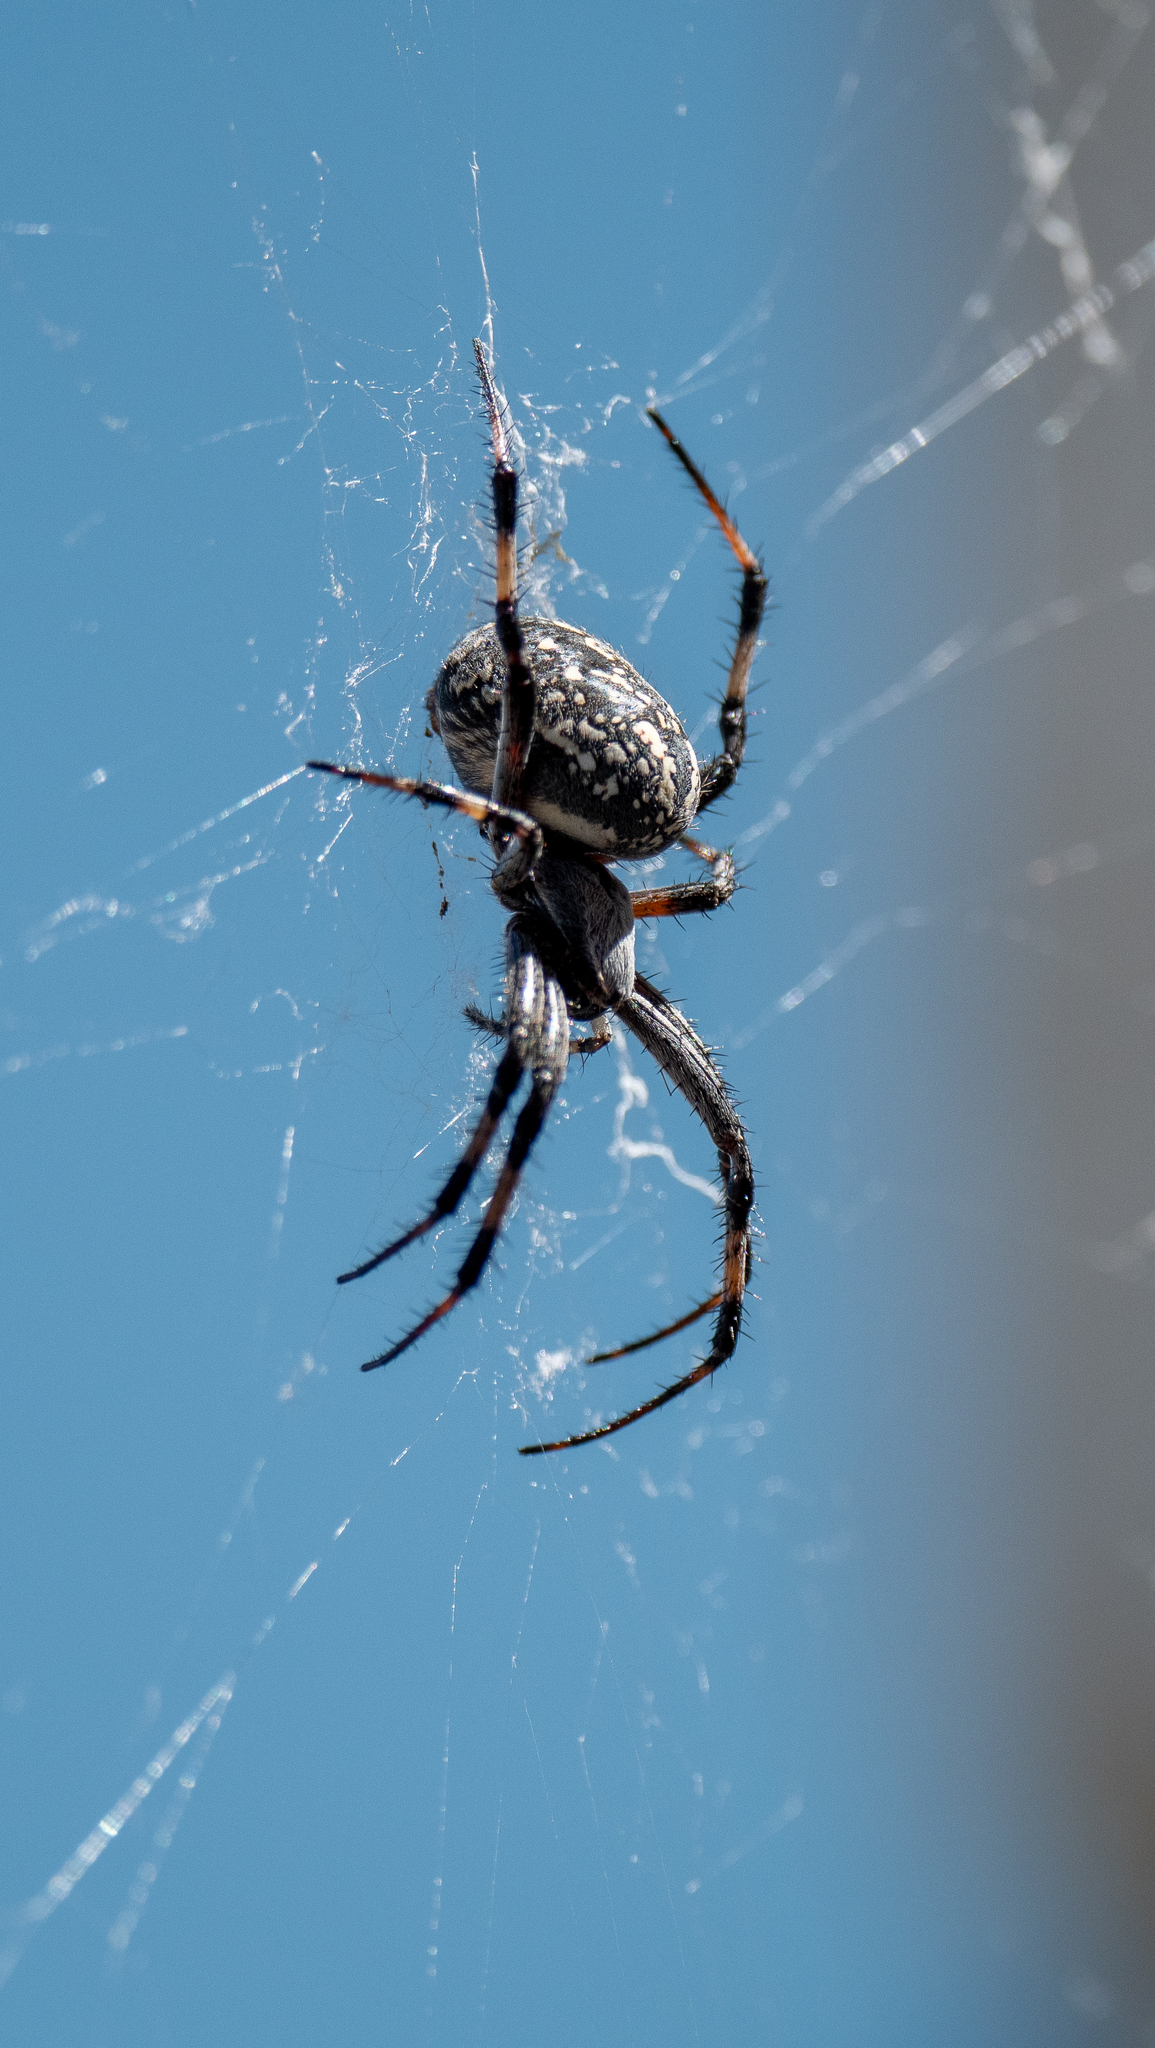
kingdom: Animalia
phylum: Arthropoda
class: Arachnida
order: Araneae
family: Araneidae
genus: Neoscona
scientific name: Neoscona oaxacensis
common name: Orb weavers
